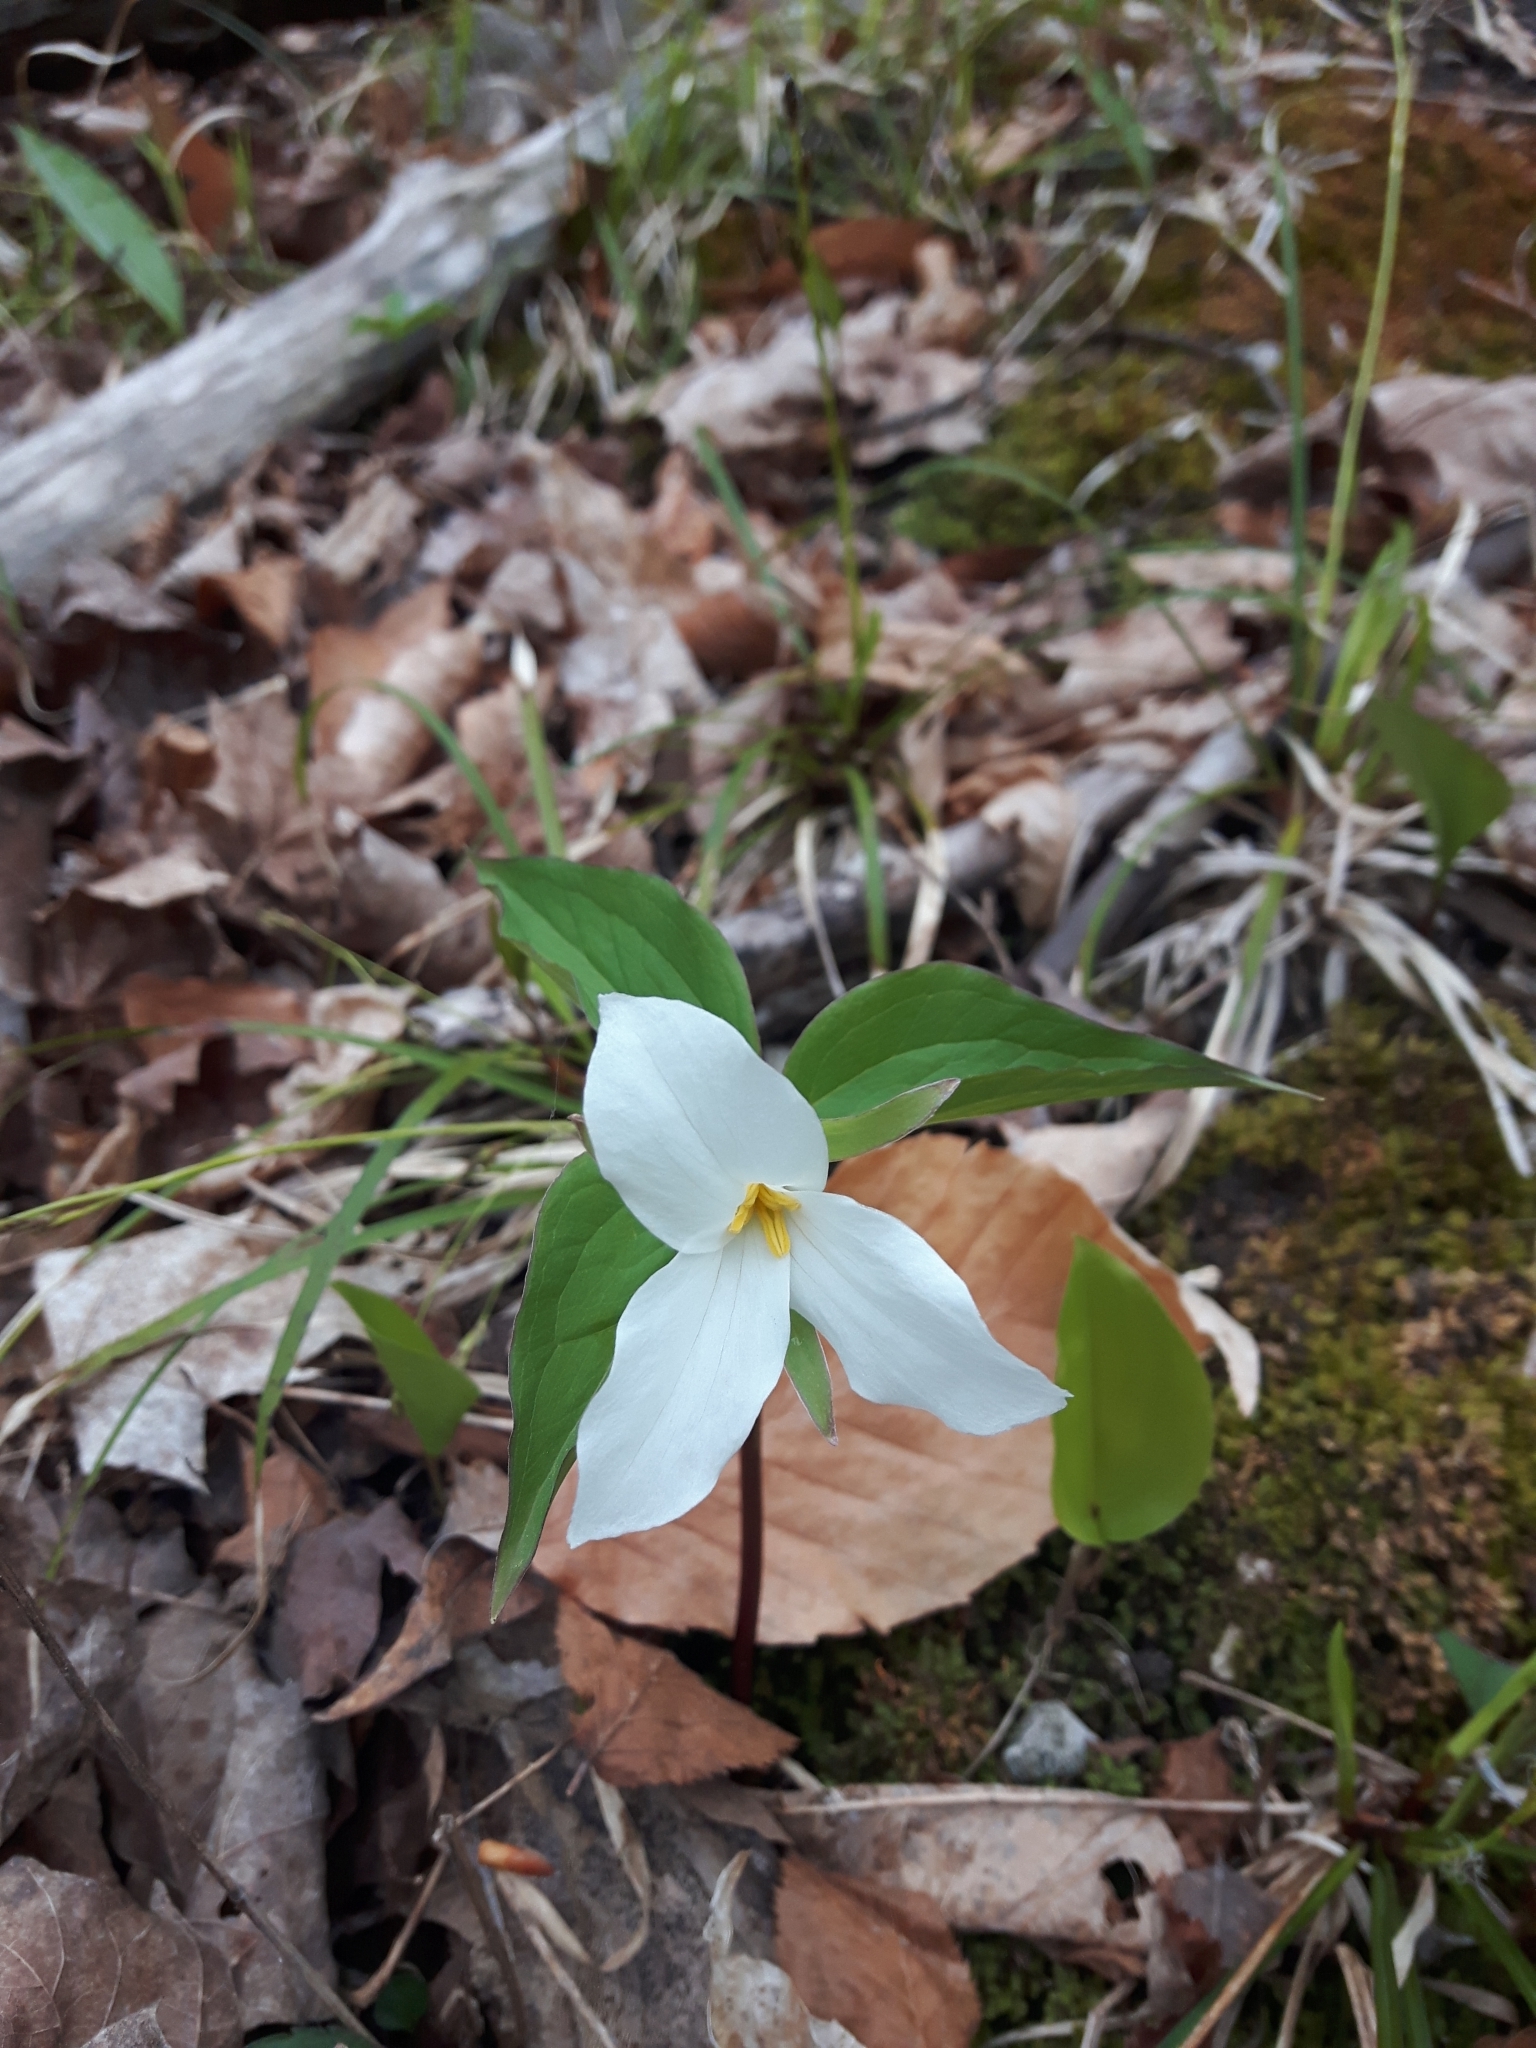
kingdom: Plantae
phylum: Tracheophyta
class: Liliopsida
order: Liliales
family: Melanthiaceae
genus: Trillium
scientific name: Trillium grandiflorum
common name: Great white trillium
